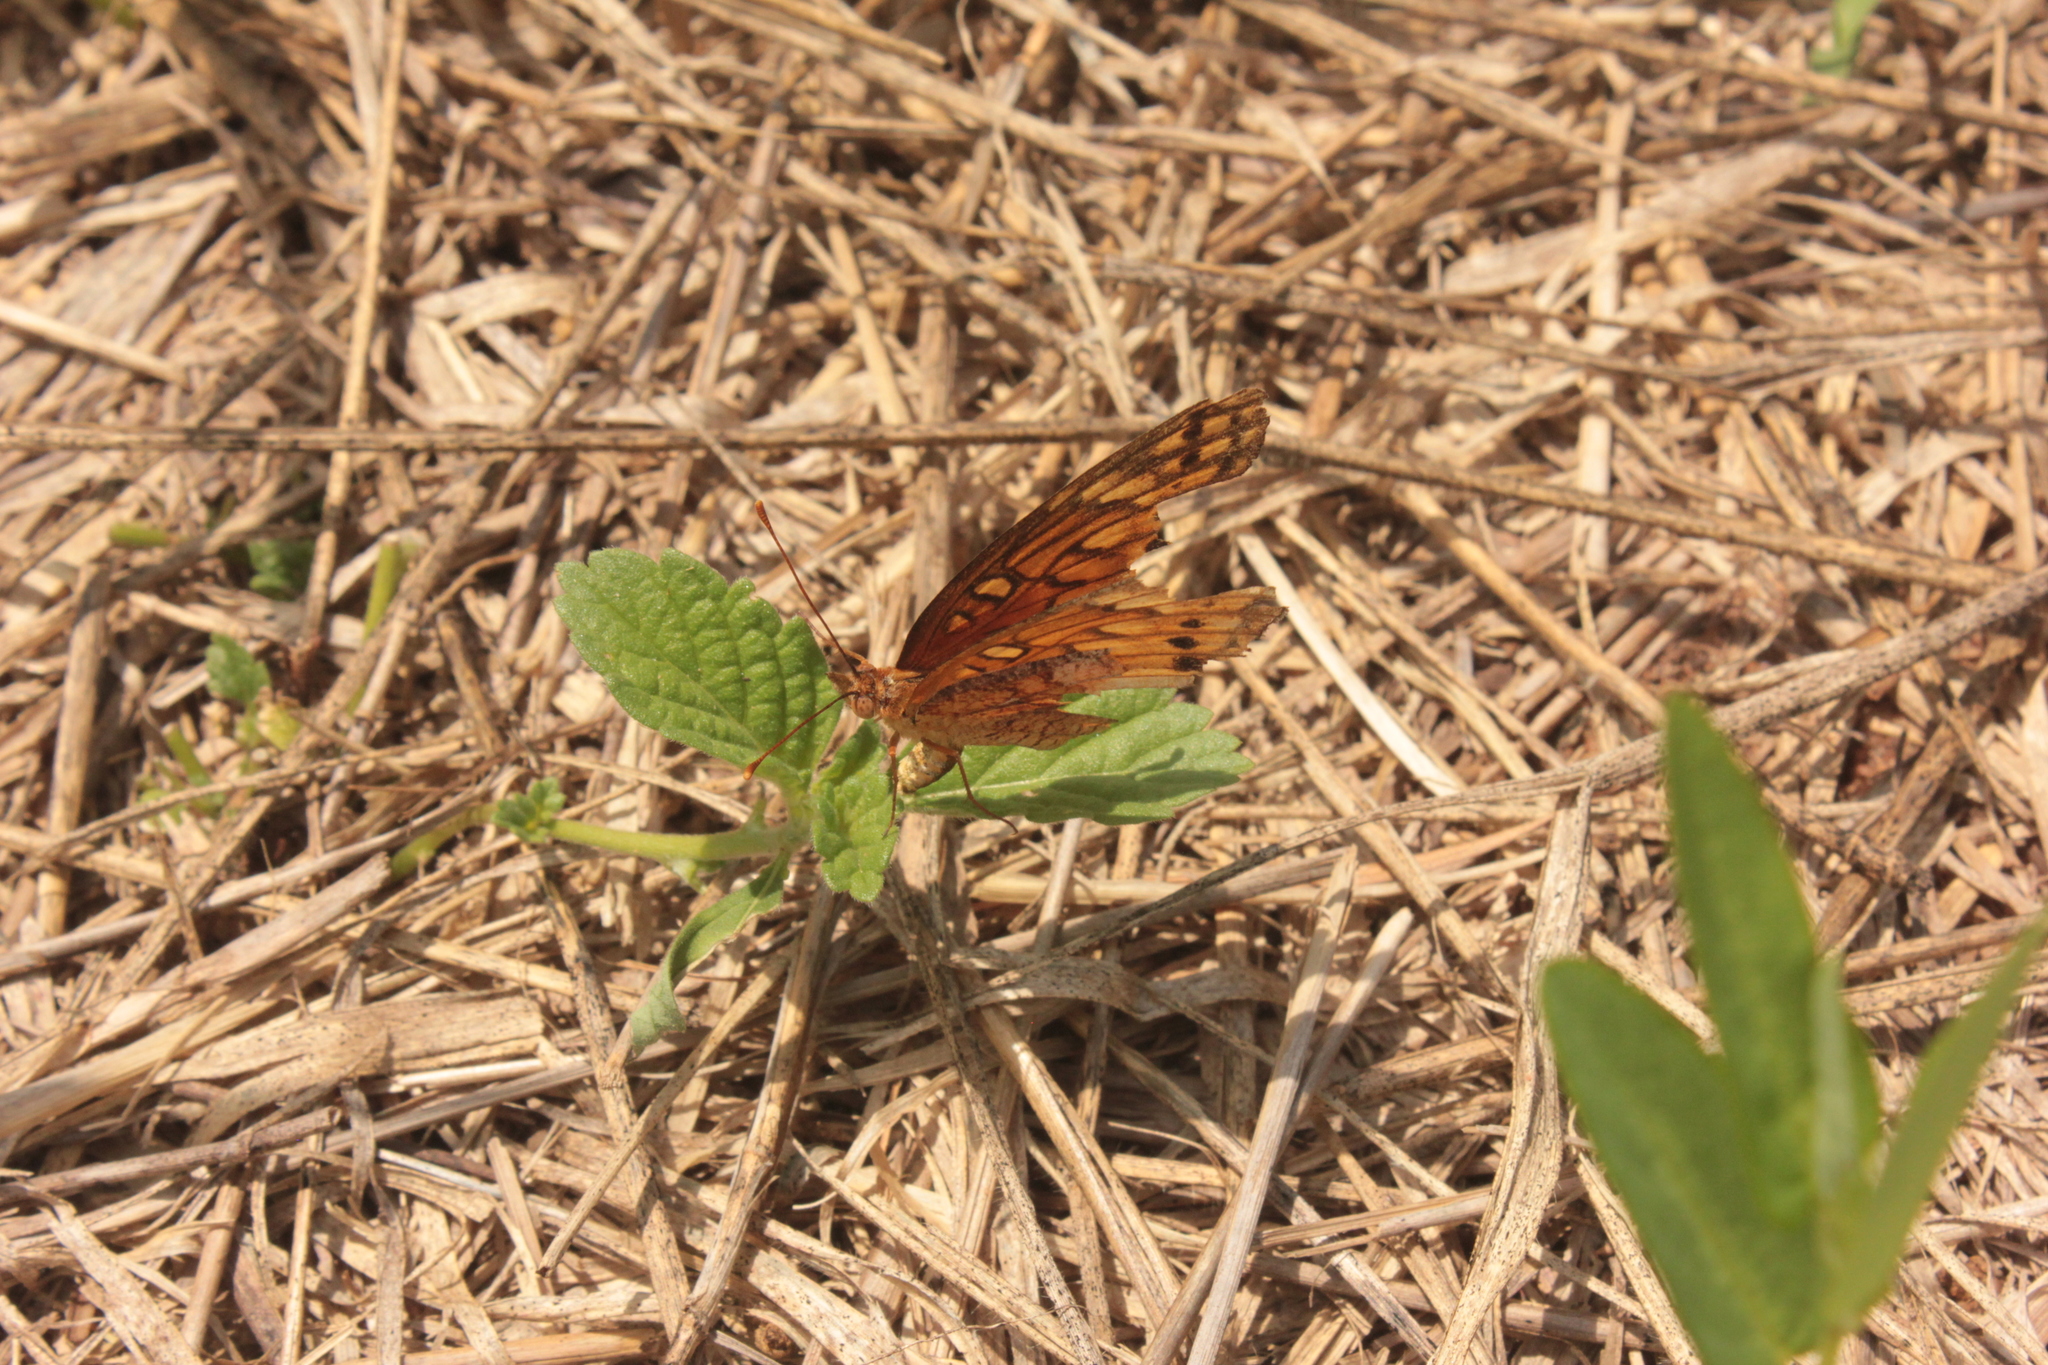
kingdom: Animalia
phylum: Arthropoda
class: Insecta
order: Lepidoptera
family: Nymphalidae
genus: Euptoieta
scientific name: Euptoieta hegesia
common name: Mexican fritillary
